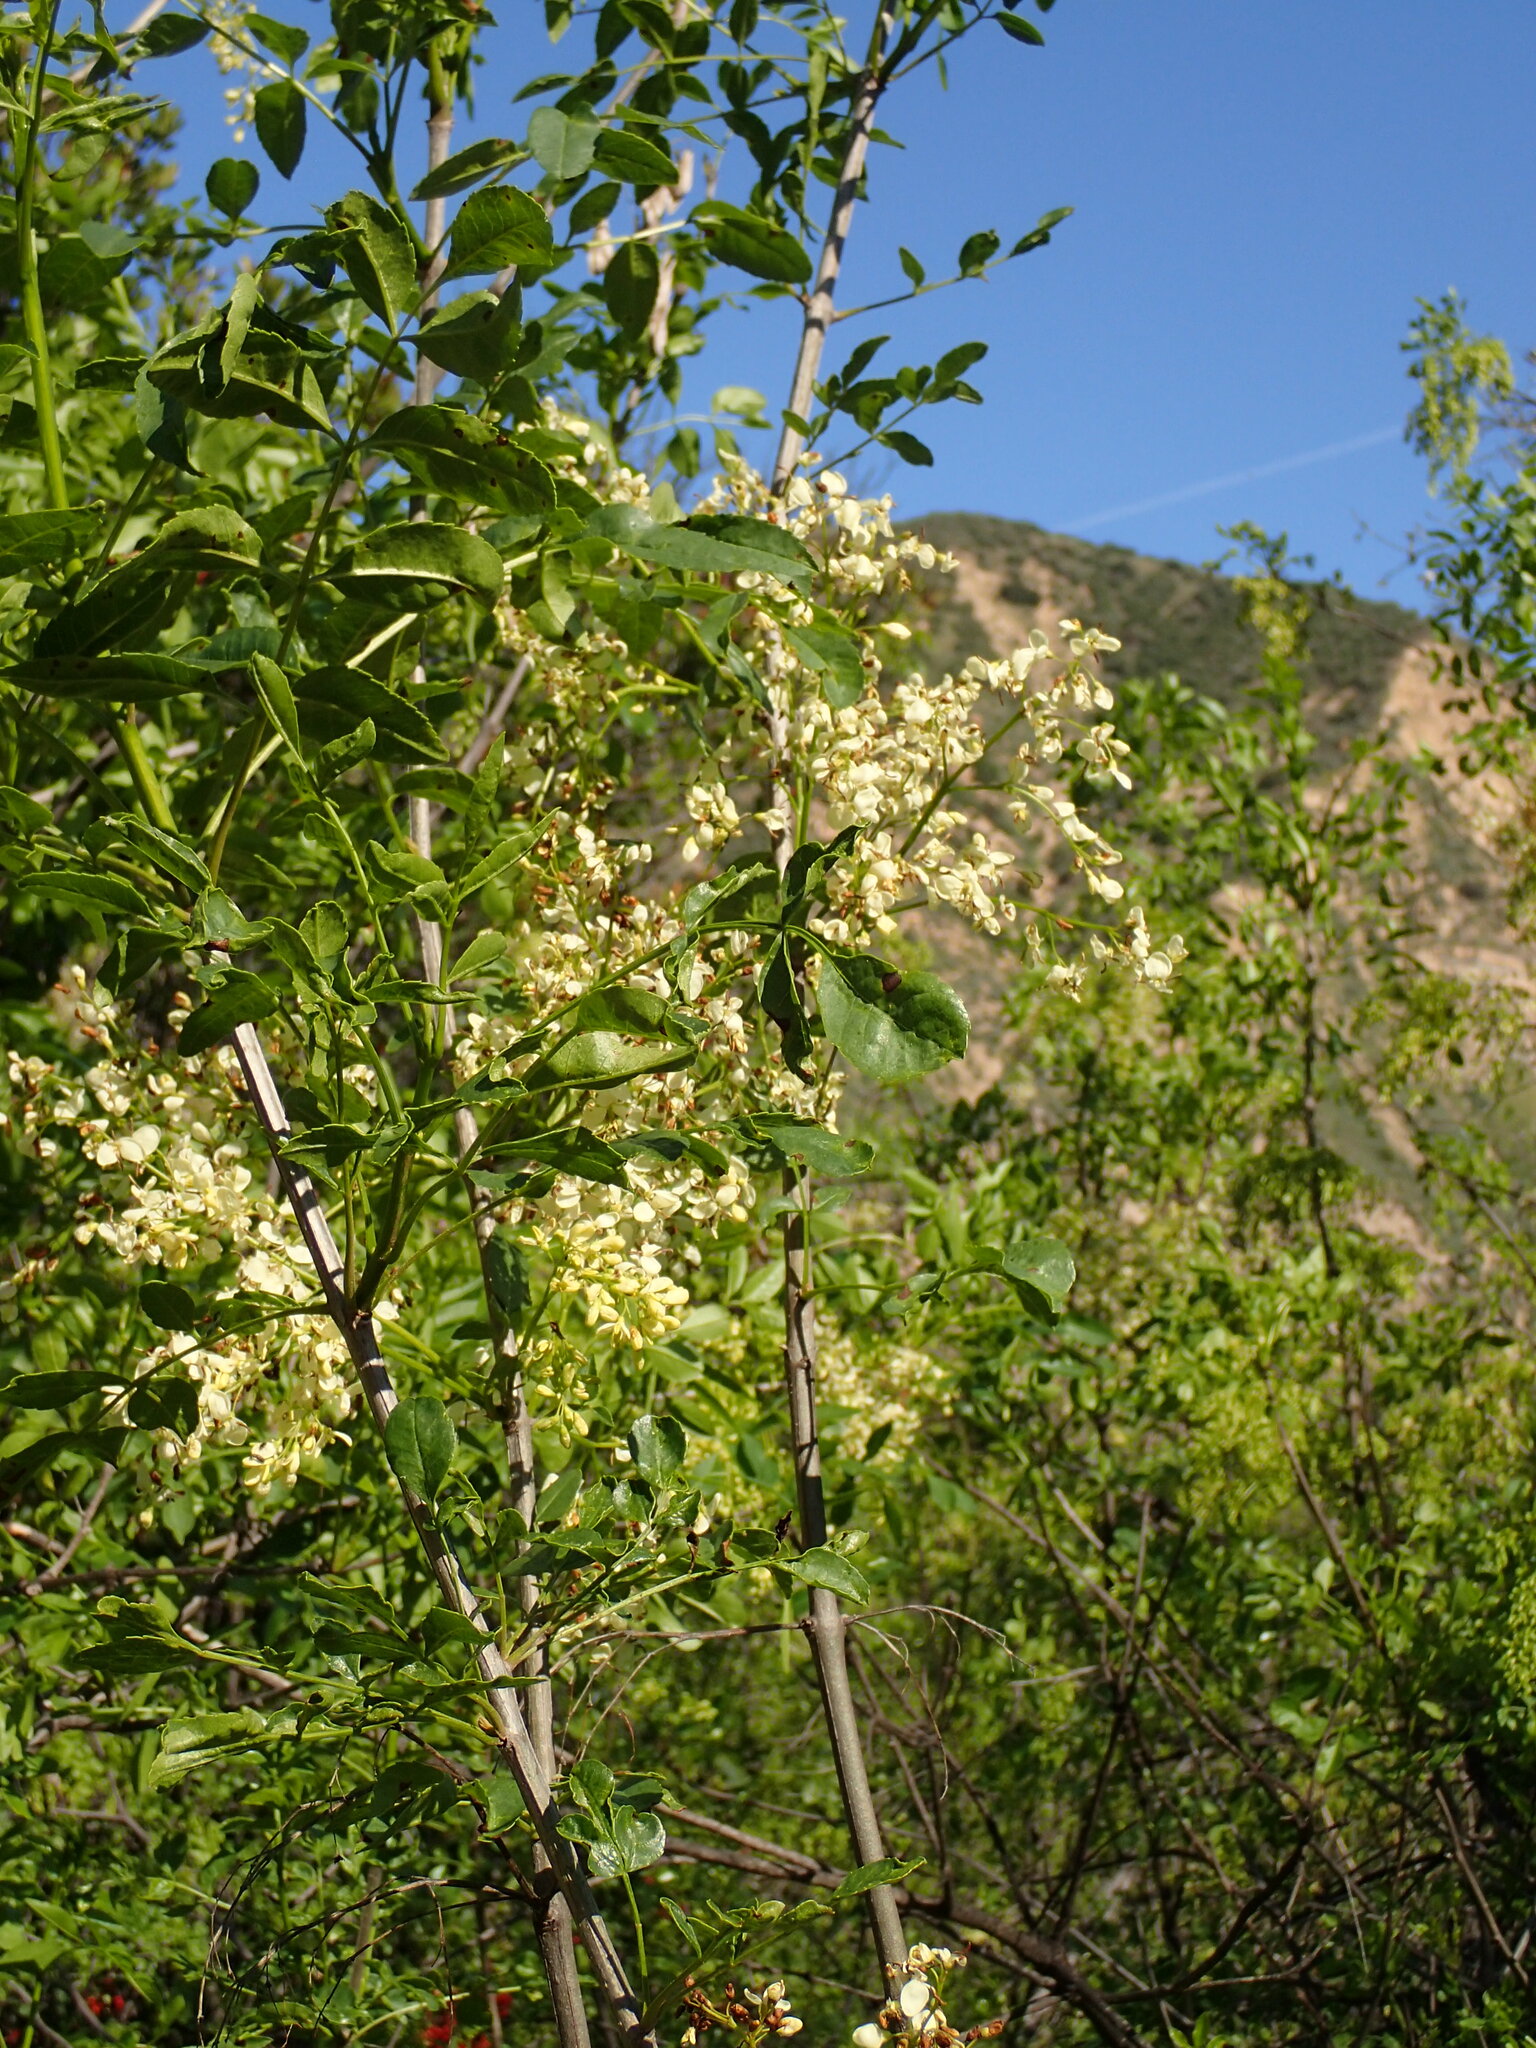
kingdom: Plantae
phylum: Tracheophyta
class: Magnoliopsida
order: Lamiales
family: Oleaceae
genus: Fraxinus
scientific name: Fraxinus dipetala
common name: California ash
